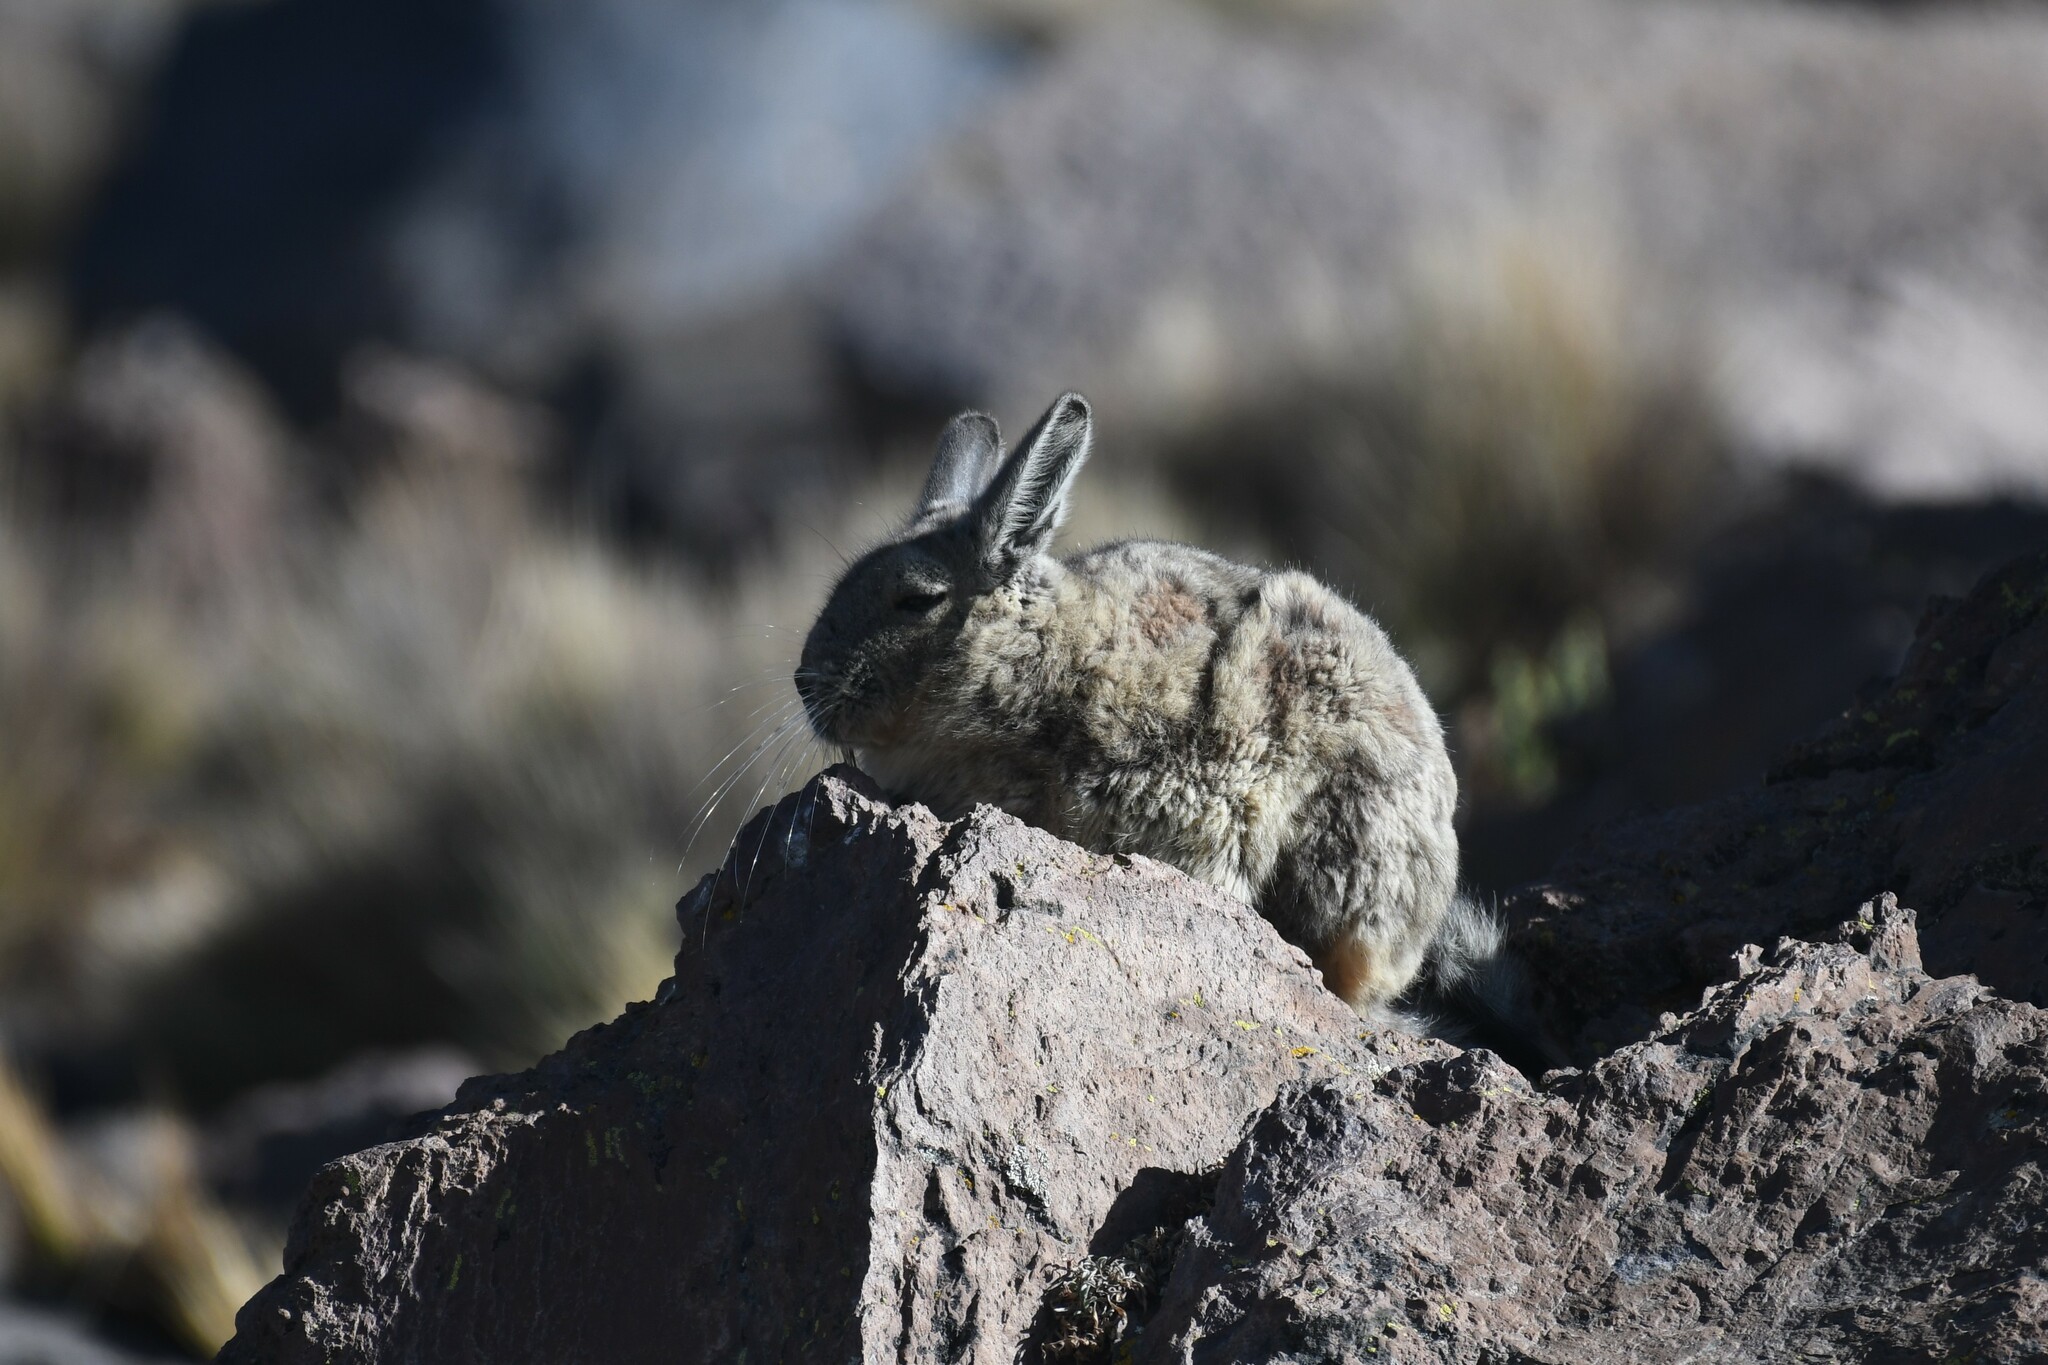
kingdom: Animalia
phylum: Chordata
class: Mammalia
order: Rodentia
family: Chinchillidae
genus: Lagidium
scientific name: Lagidium viscacia
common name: Southern viscacha
